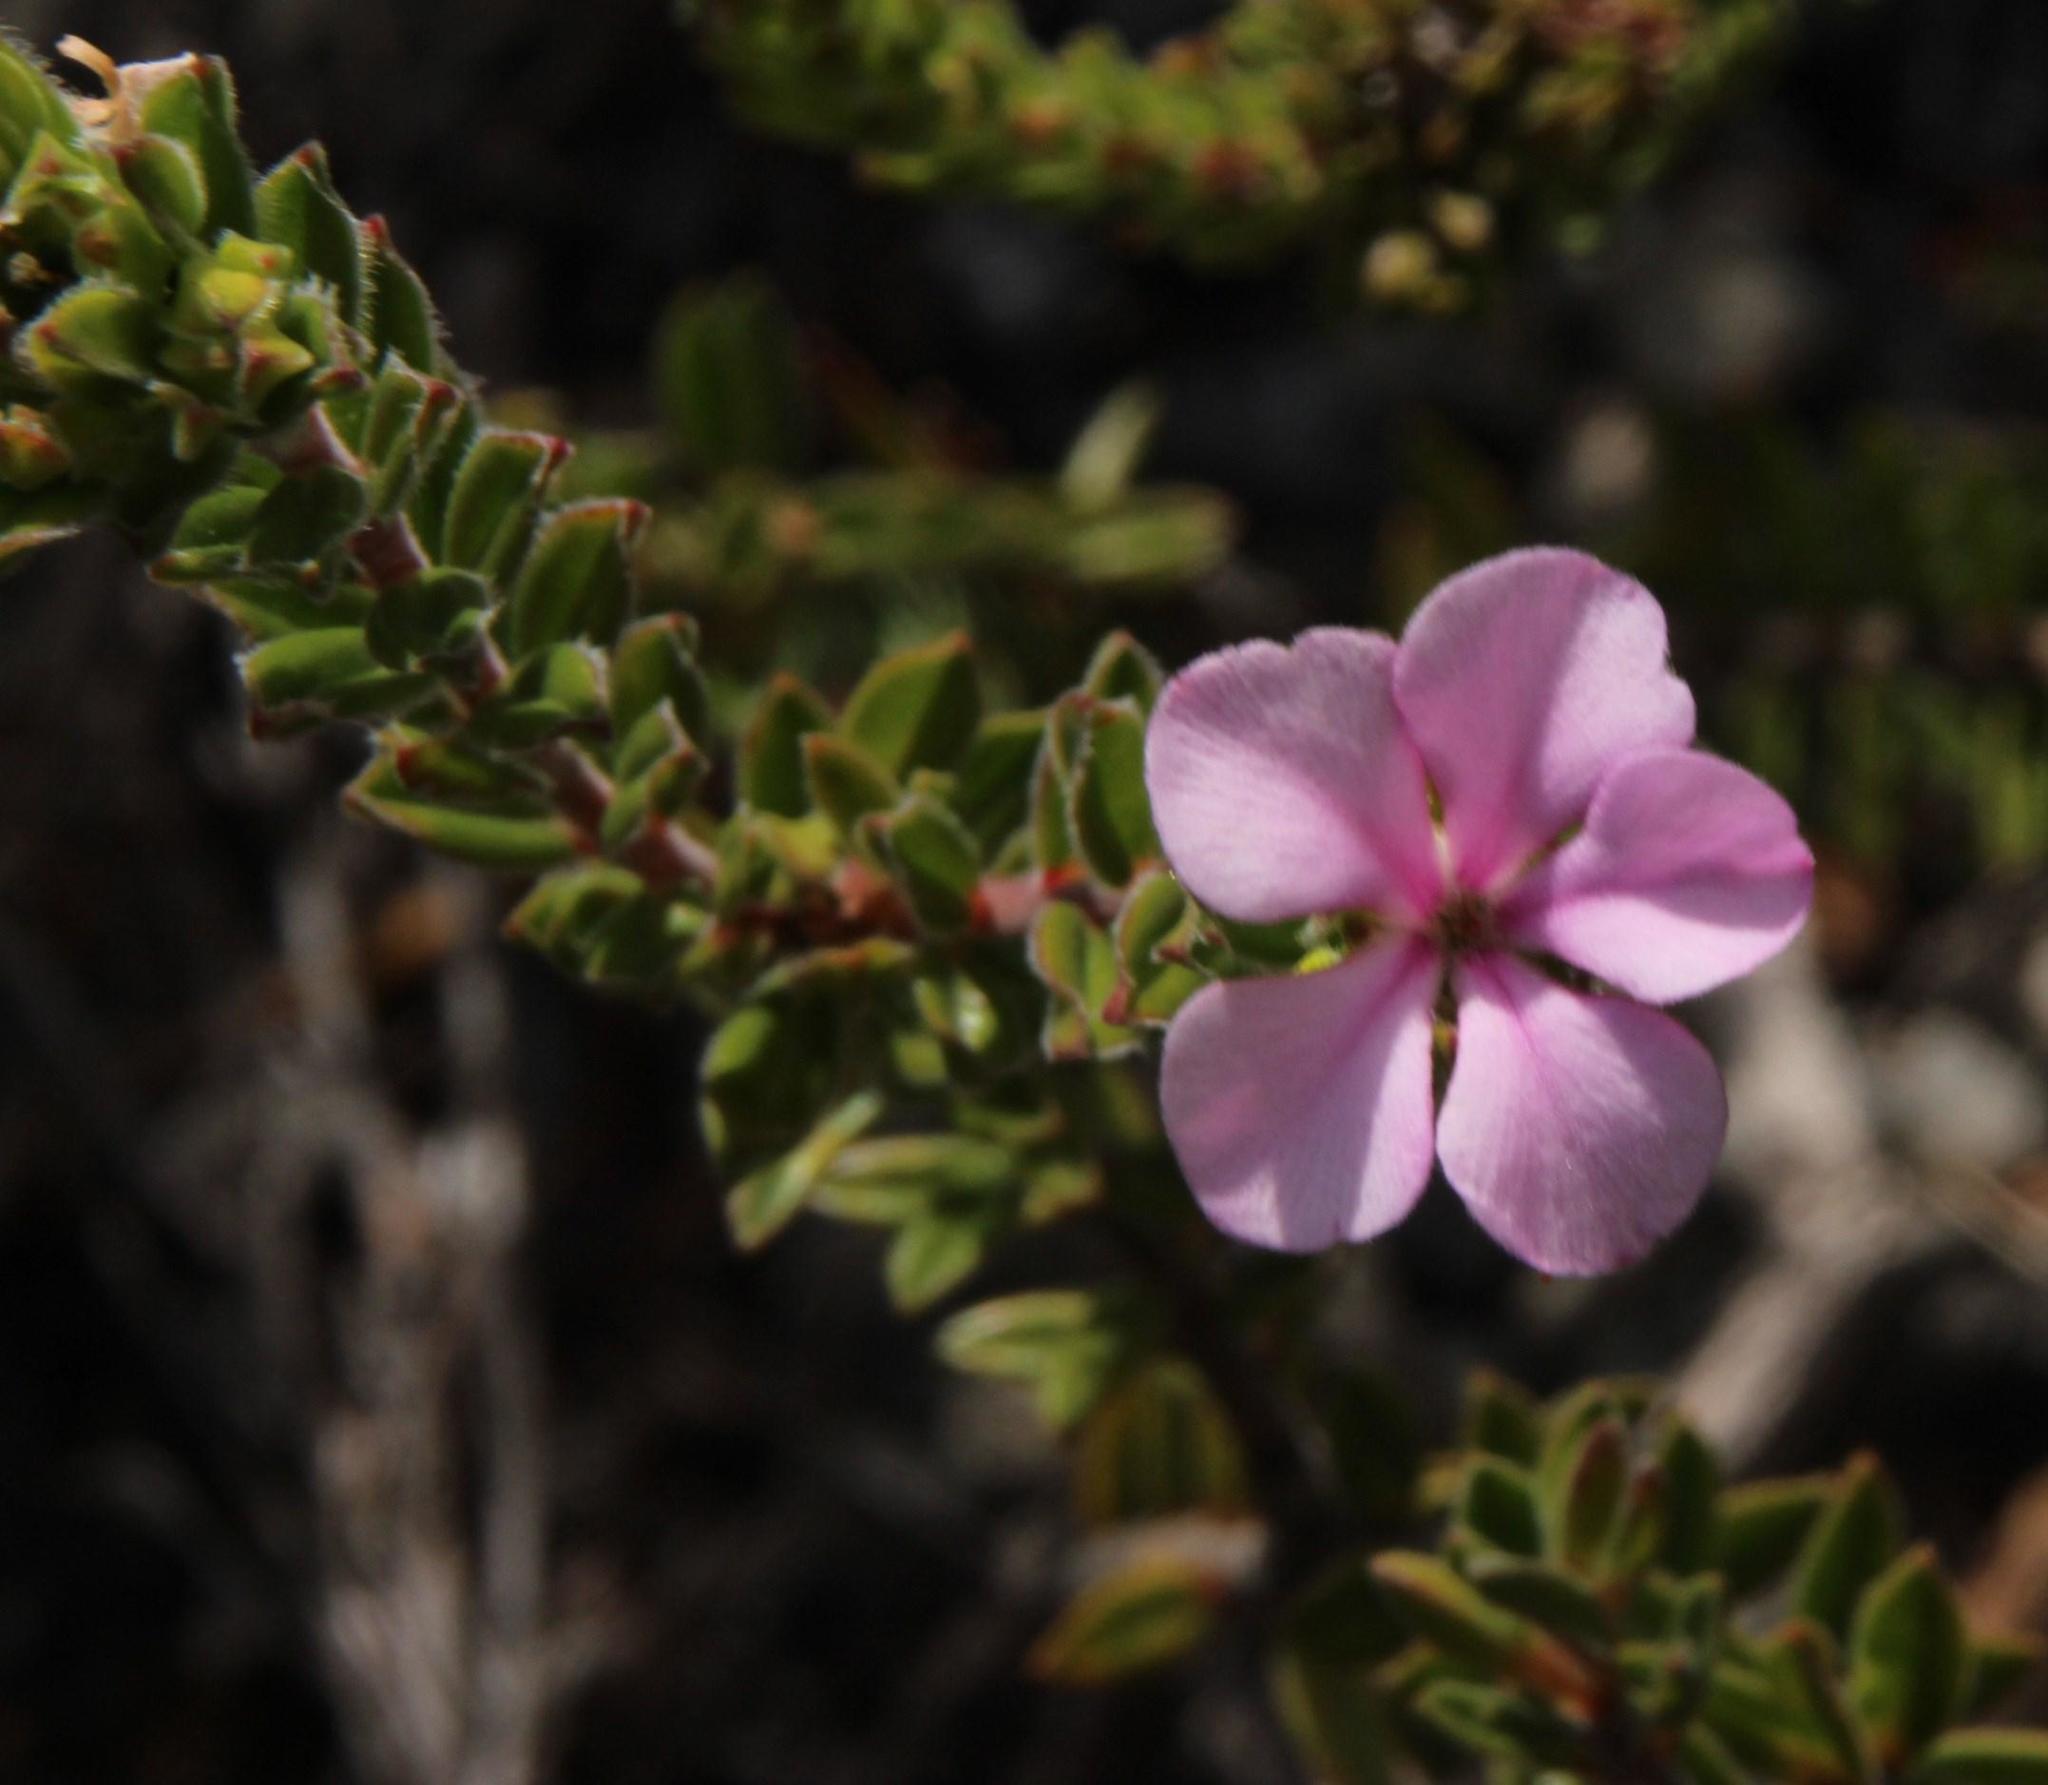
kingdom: Plantae
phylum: Tracheophyta
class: Magnoliopsida
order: Sapindales
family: Rutaceae
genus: Acmadenia
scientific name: Acmadenia heterophylla
